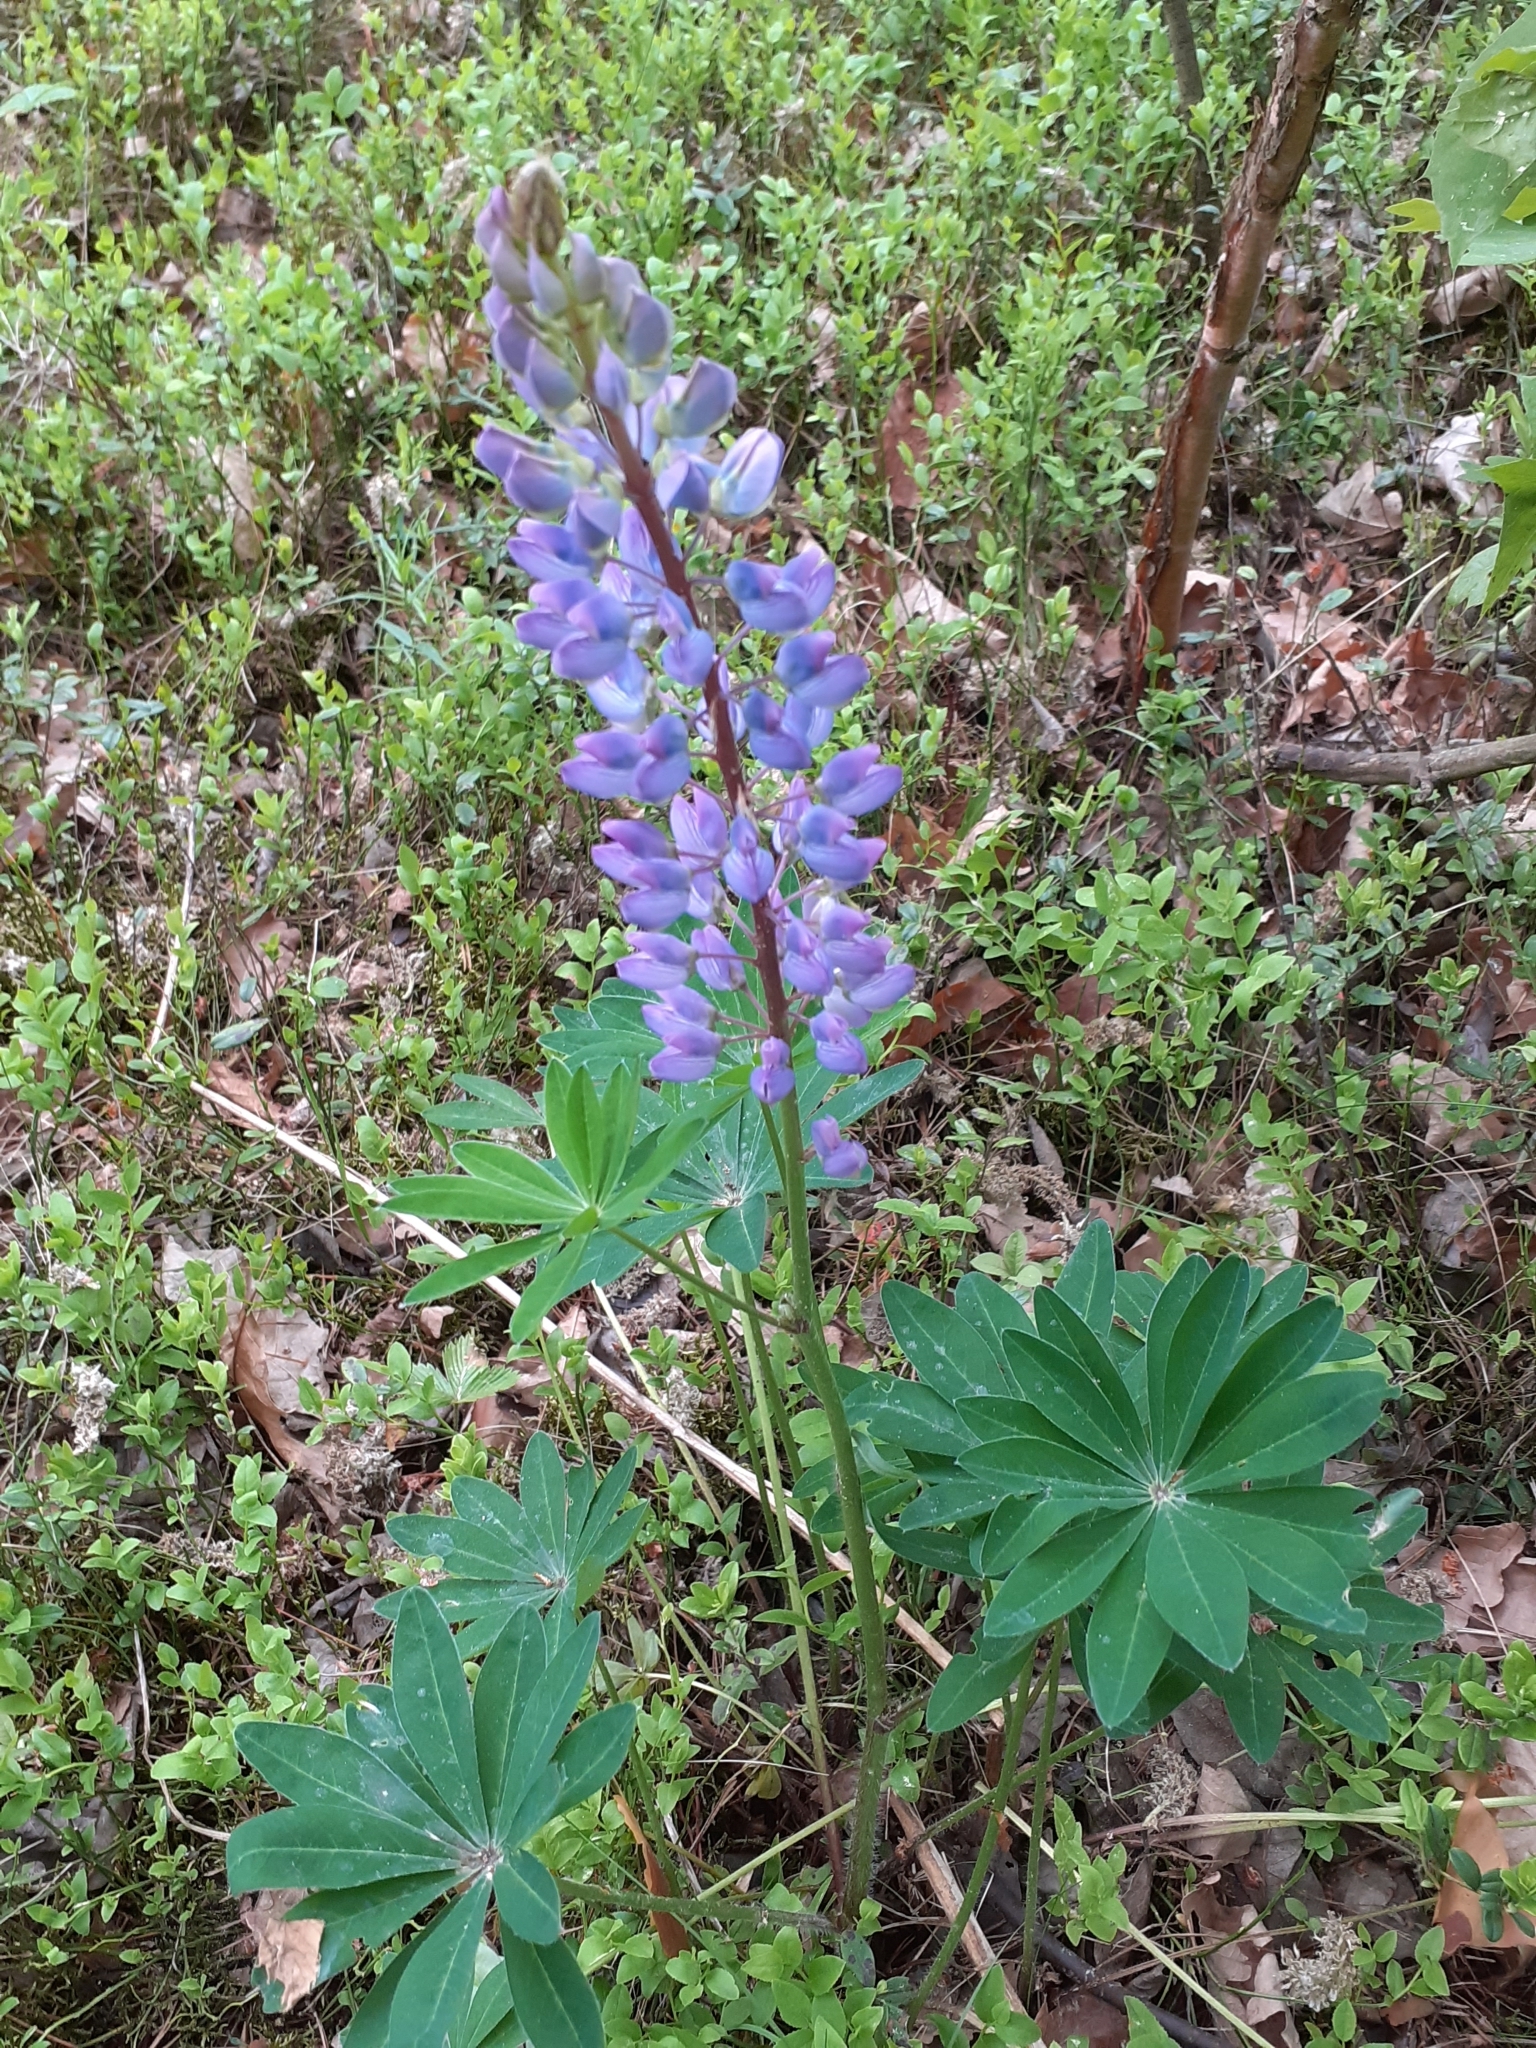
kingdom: Plantae
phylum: Tracheophyta
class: Magnoliopsida
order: Fabales
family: Fabaceae
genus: Lupinus
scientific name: Lupinus polyphyllus
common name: Garden lupin
